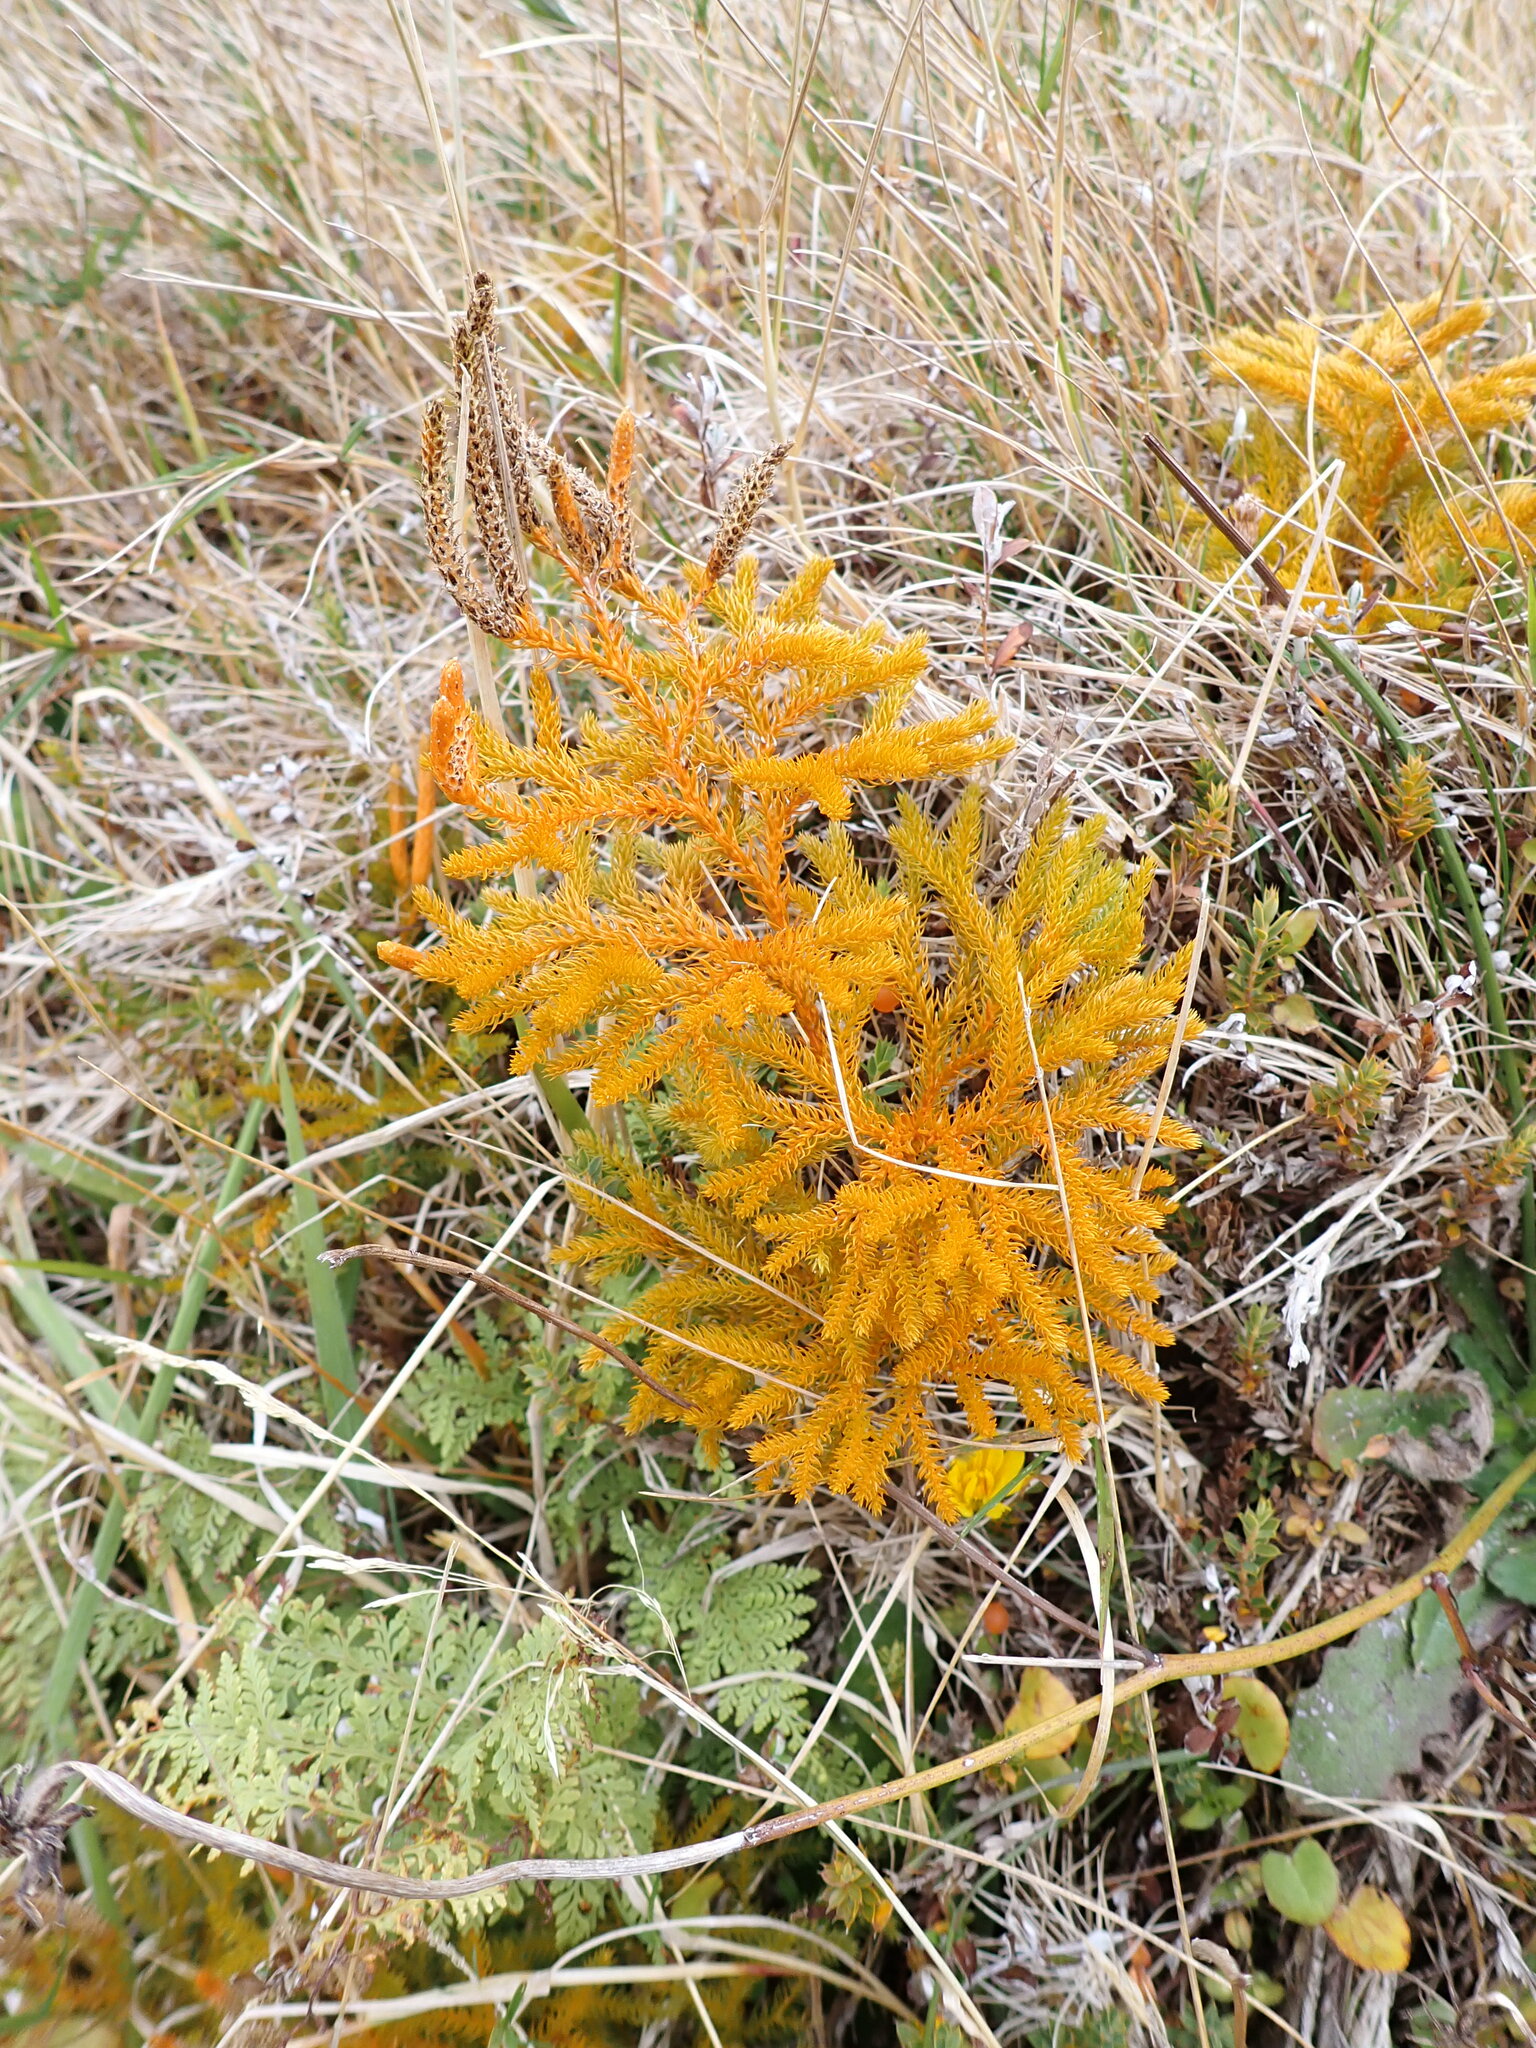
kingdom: Plantae
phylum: Tracheophyta
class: Lycopodiopsida
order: Lycopodiales
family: Lycopodiaceae
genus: Austrolycopodium
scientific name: Austrolycopodium fastigiatum
